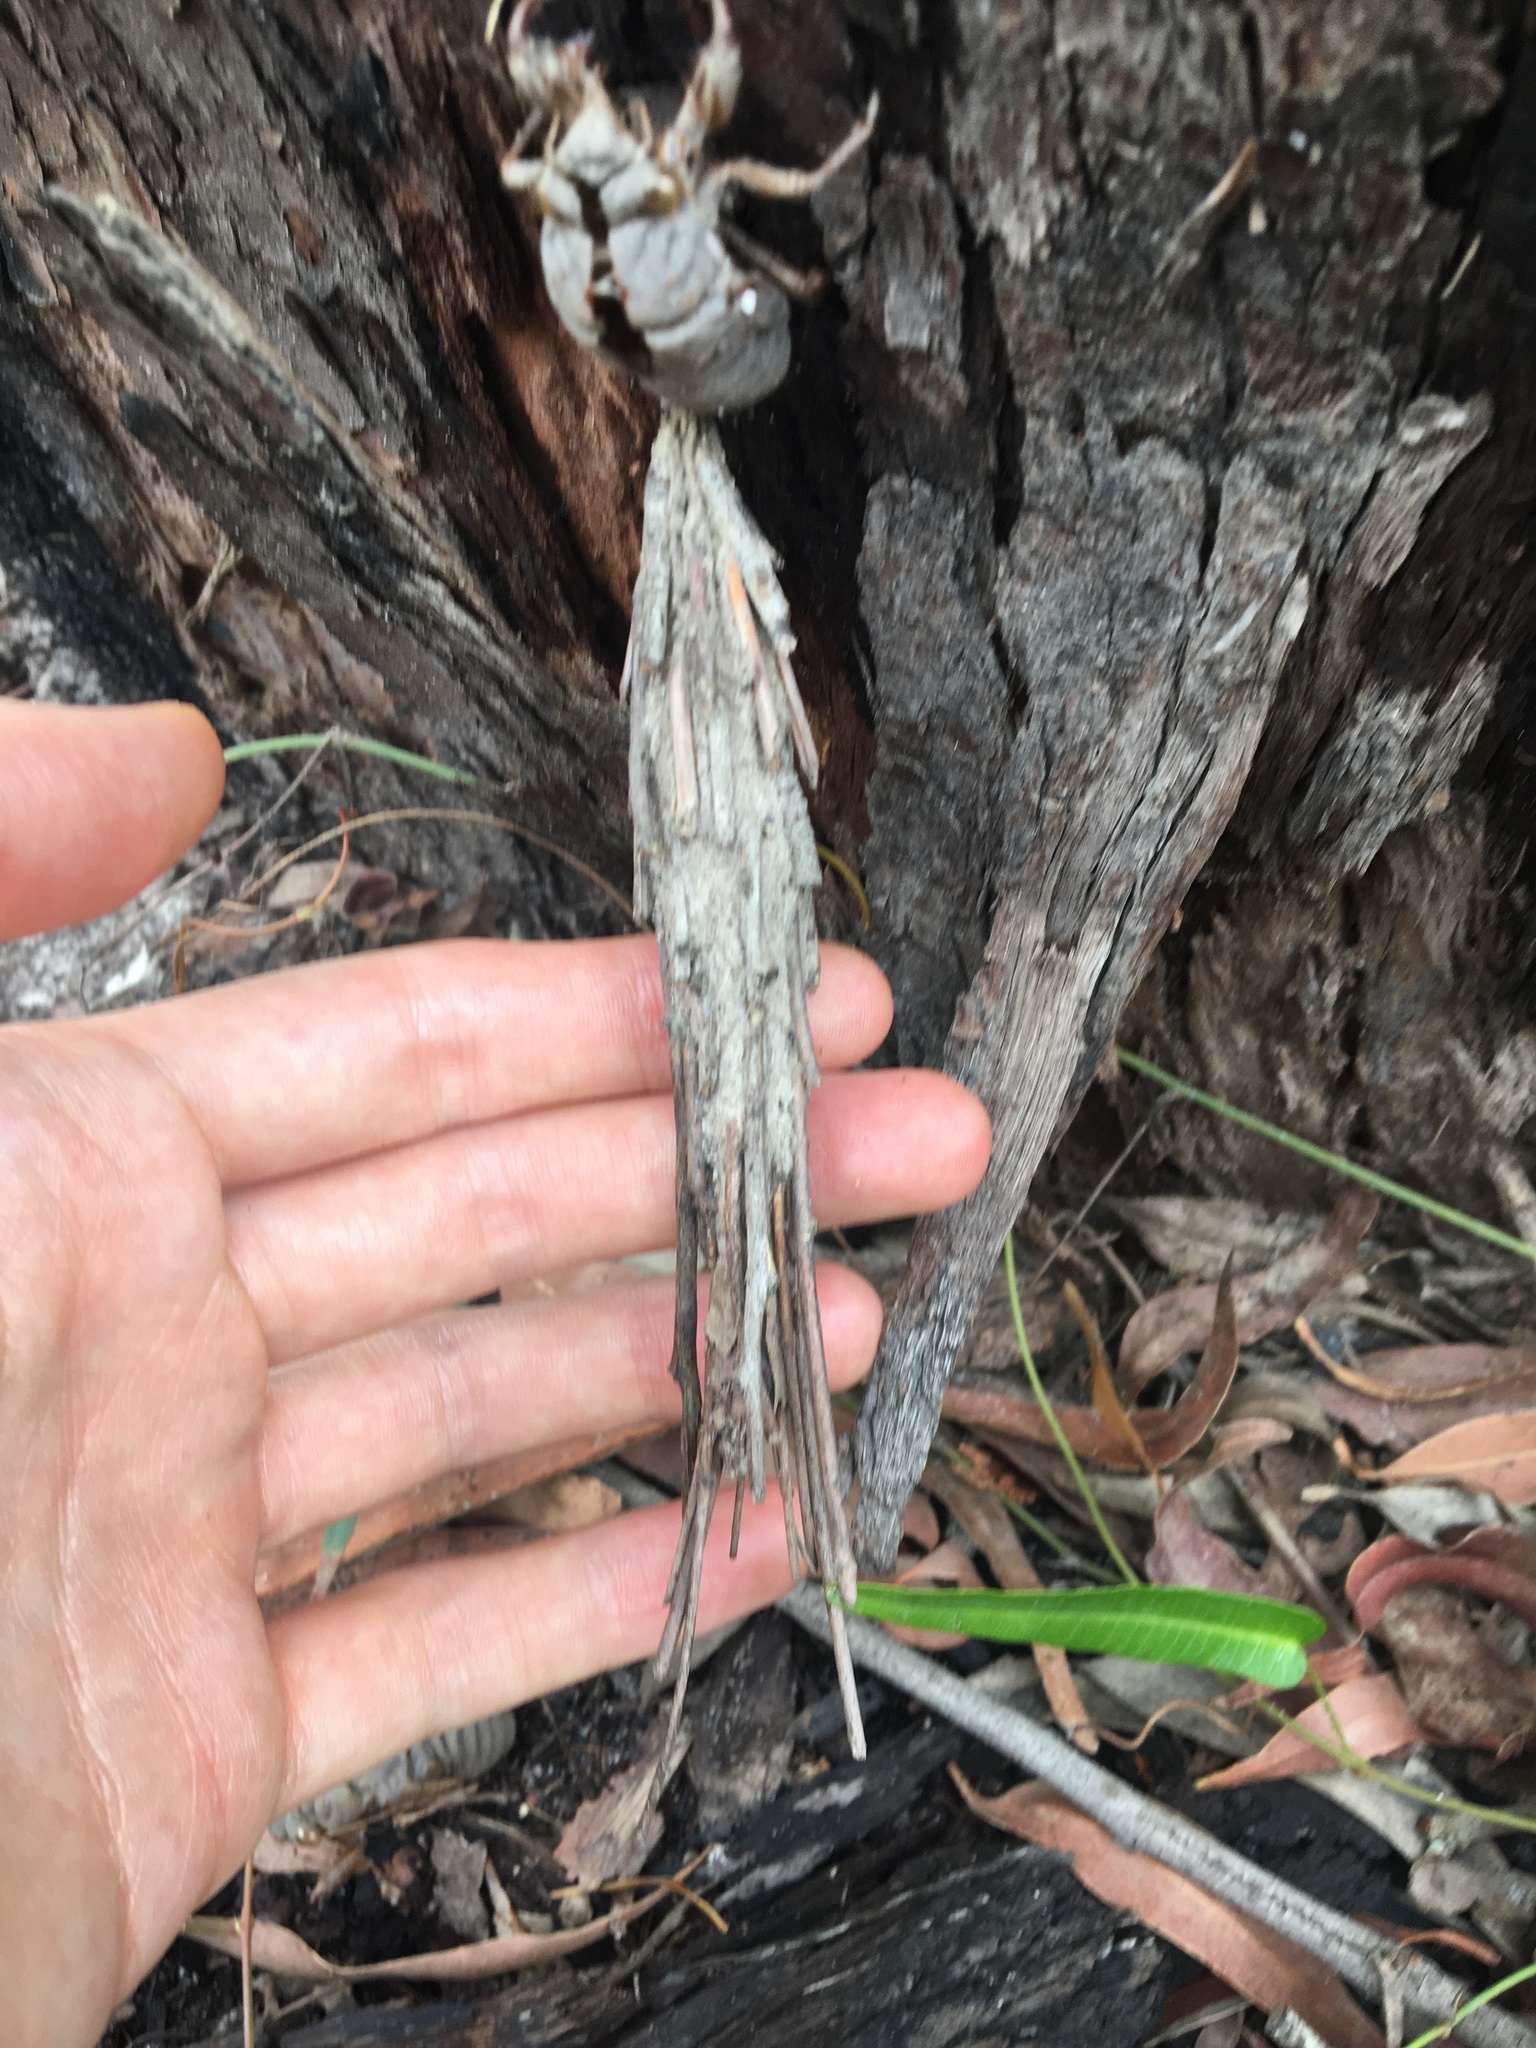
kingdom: Animalia
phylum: Arthropoda
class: Insecta
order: Lepidoptera
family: Psychidae
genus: Metura
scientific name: Metura elongatus
